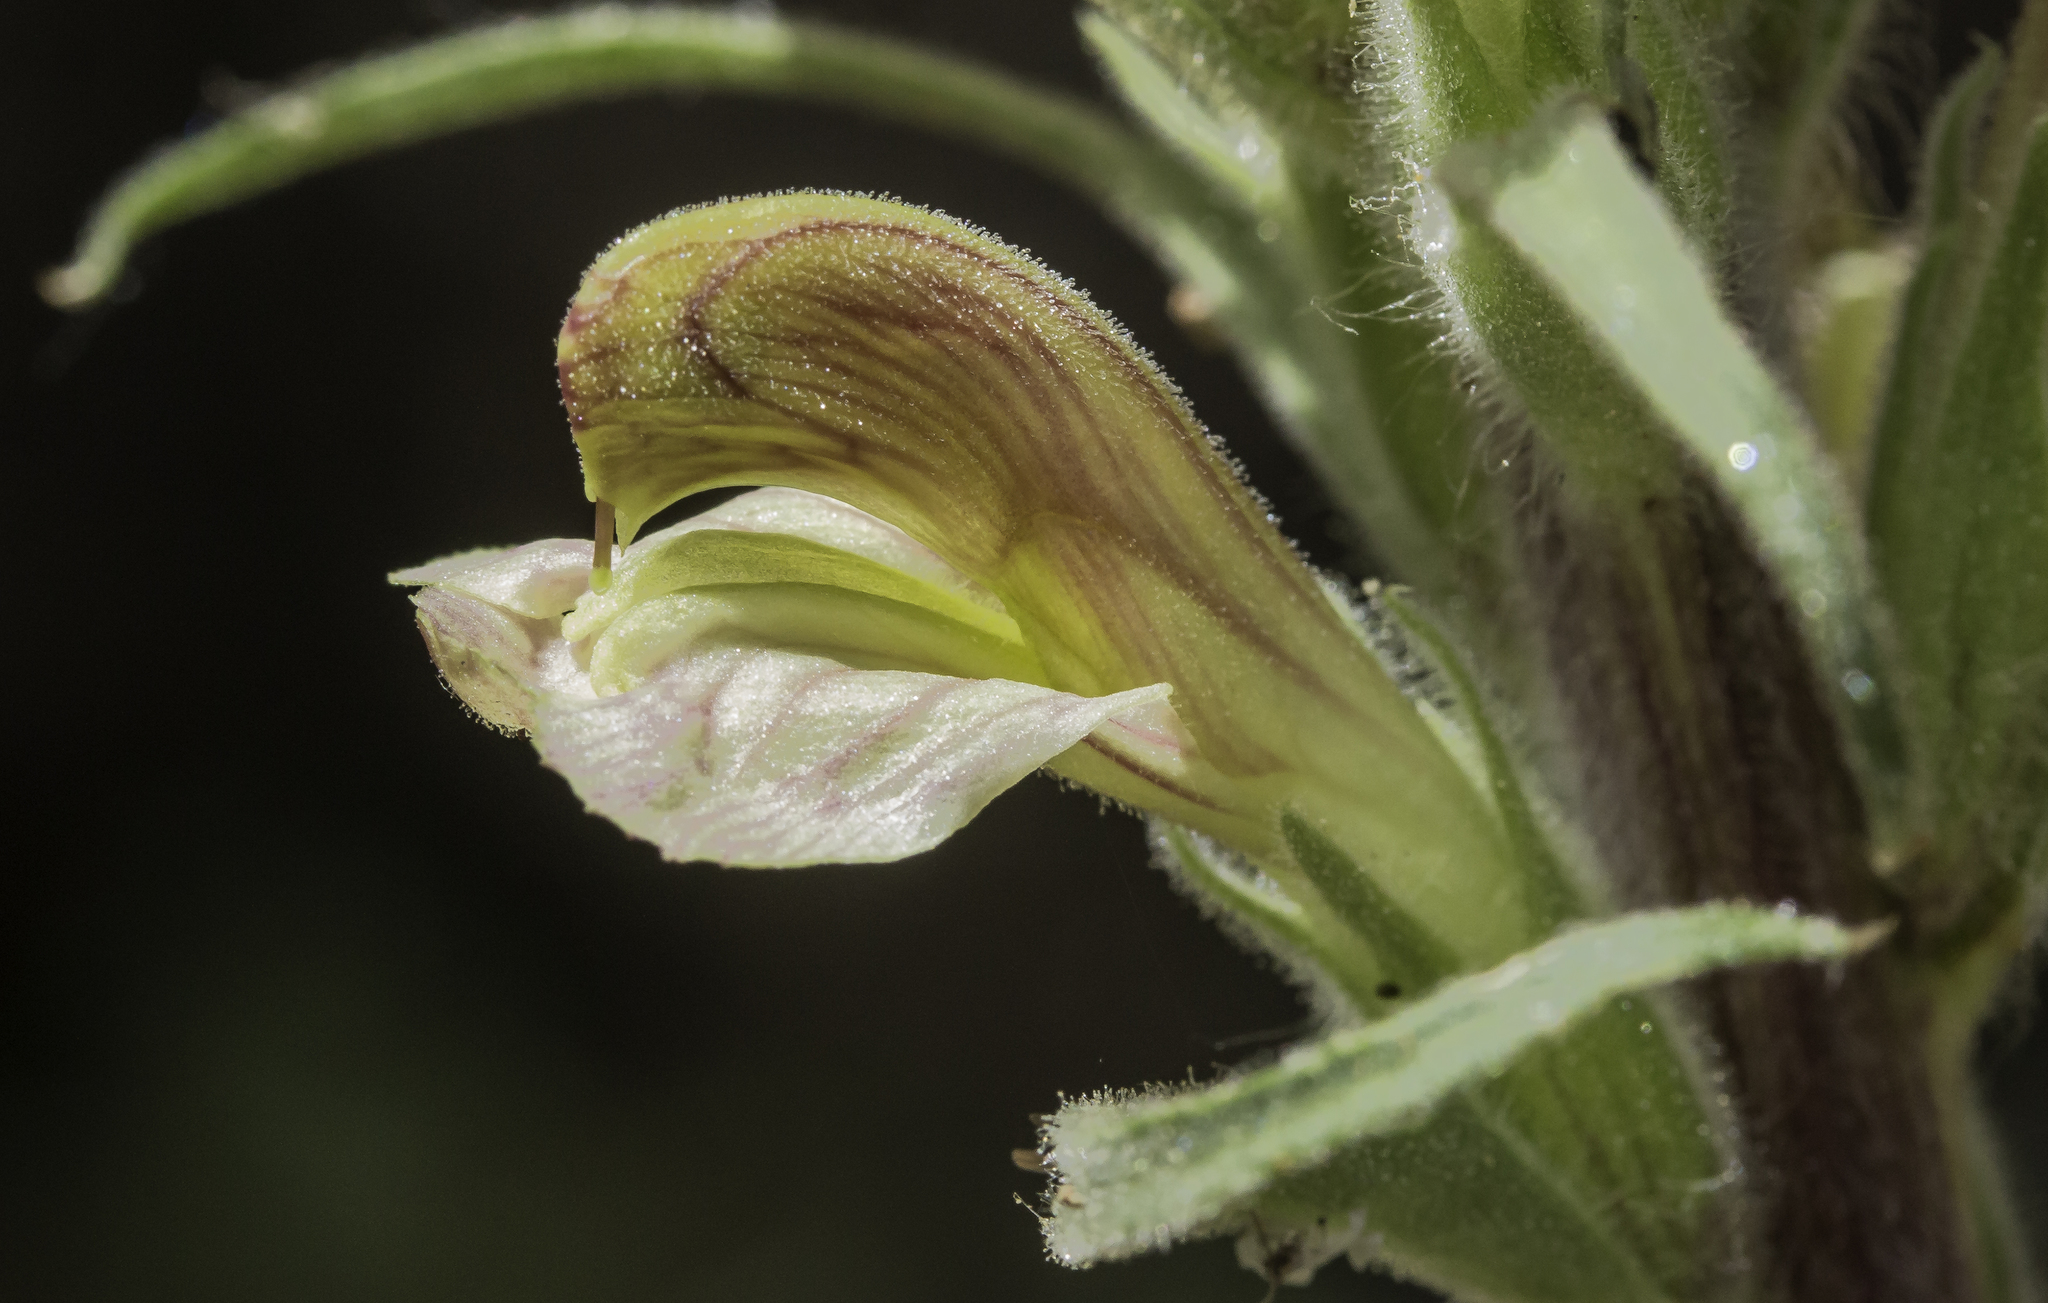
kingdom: Plantae
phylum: Tracheophyta
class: Magnoliopsida
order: Lamiales
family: Orobanchaceae
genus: Pedicularis
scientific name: Pedicularis procera
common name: Gray's lousewort
